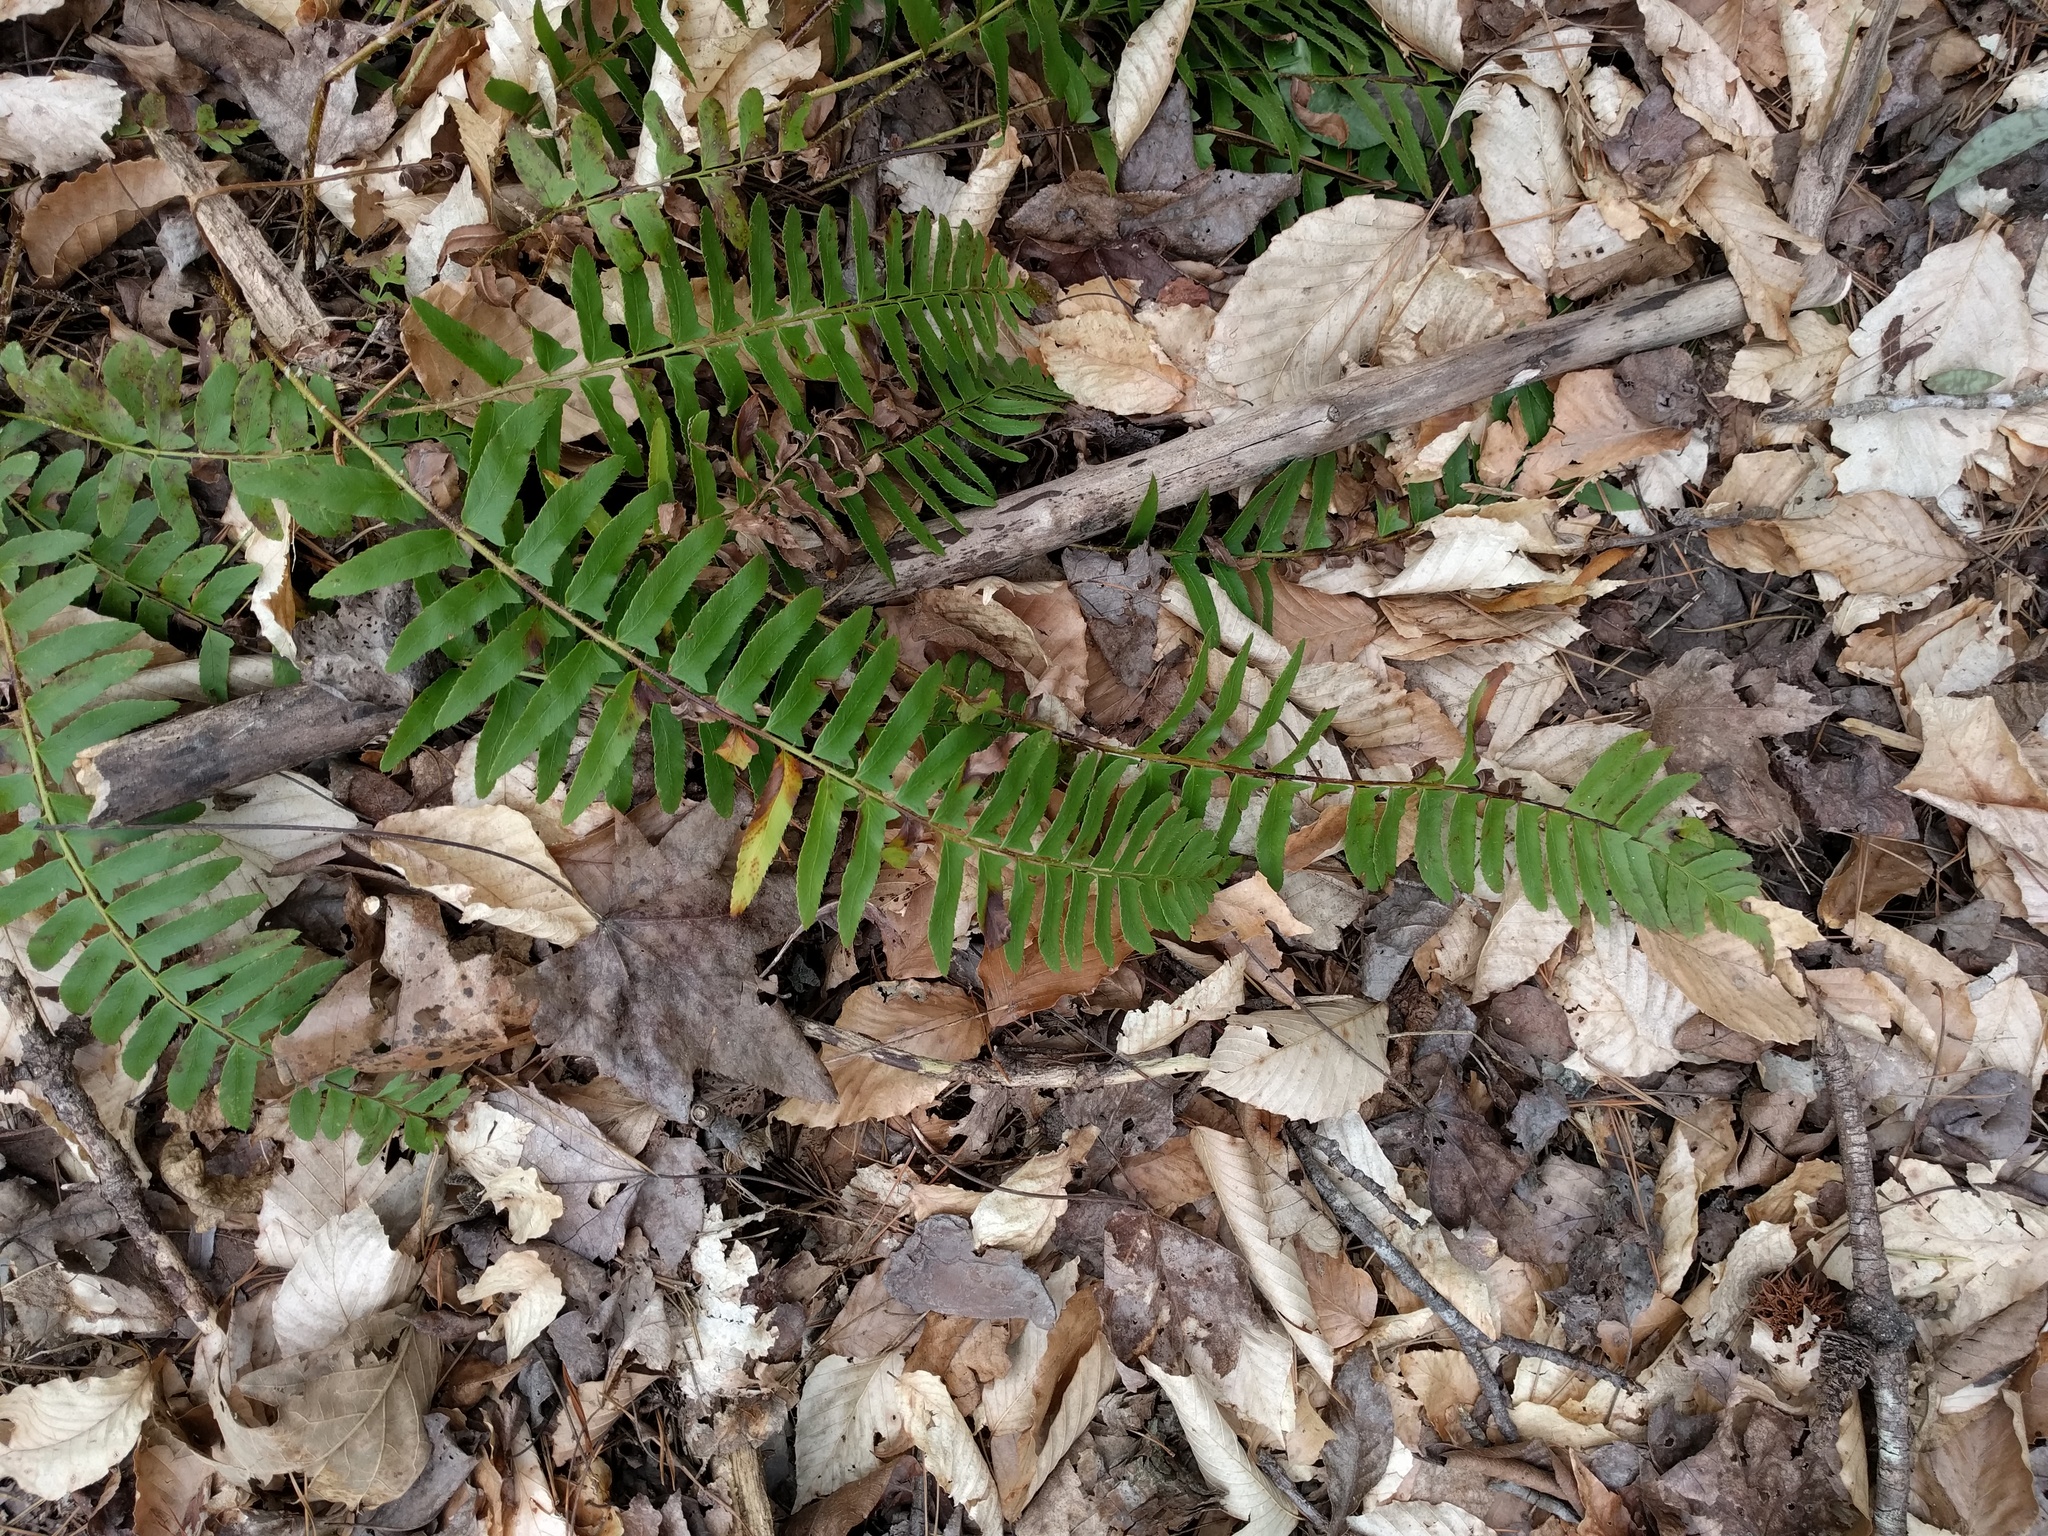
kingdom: Plantae
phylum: Tracheophyta
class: Polypodiopsida
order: Polypodiales
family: Dryopteridaceae
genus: Polystichum
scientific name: Polystichum acrostichoides
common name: Christmas fern
